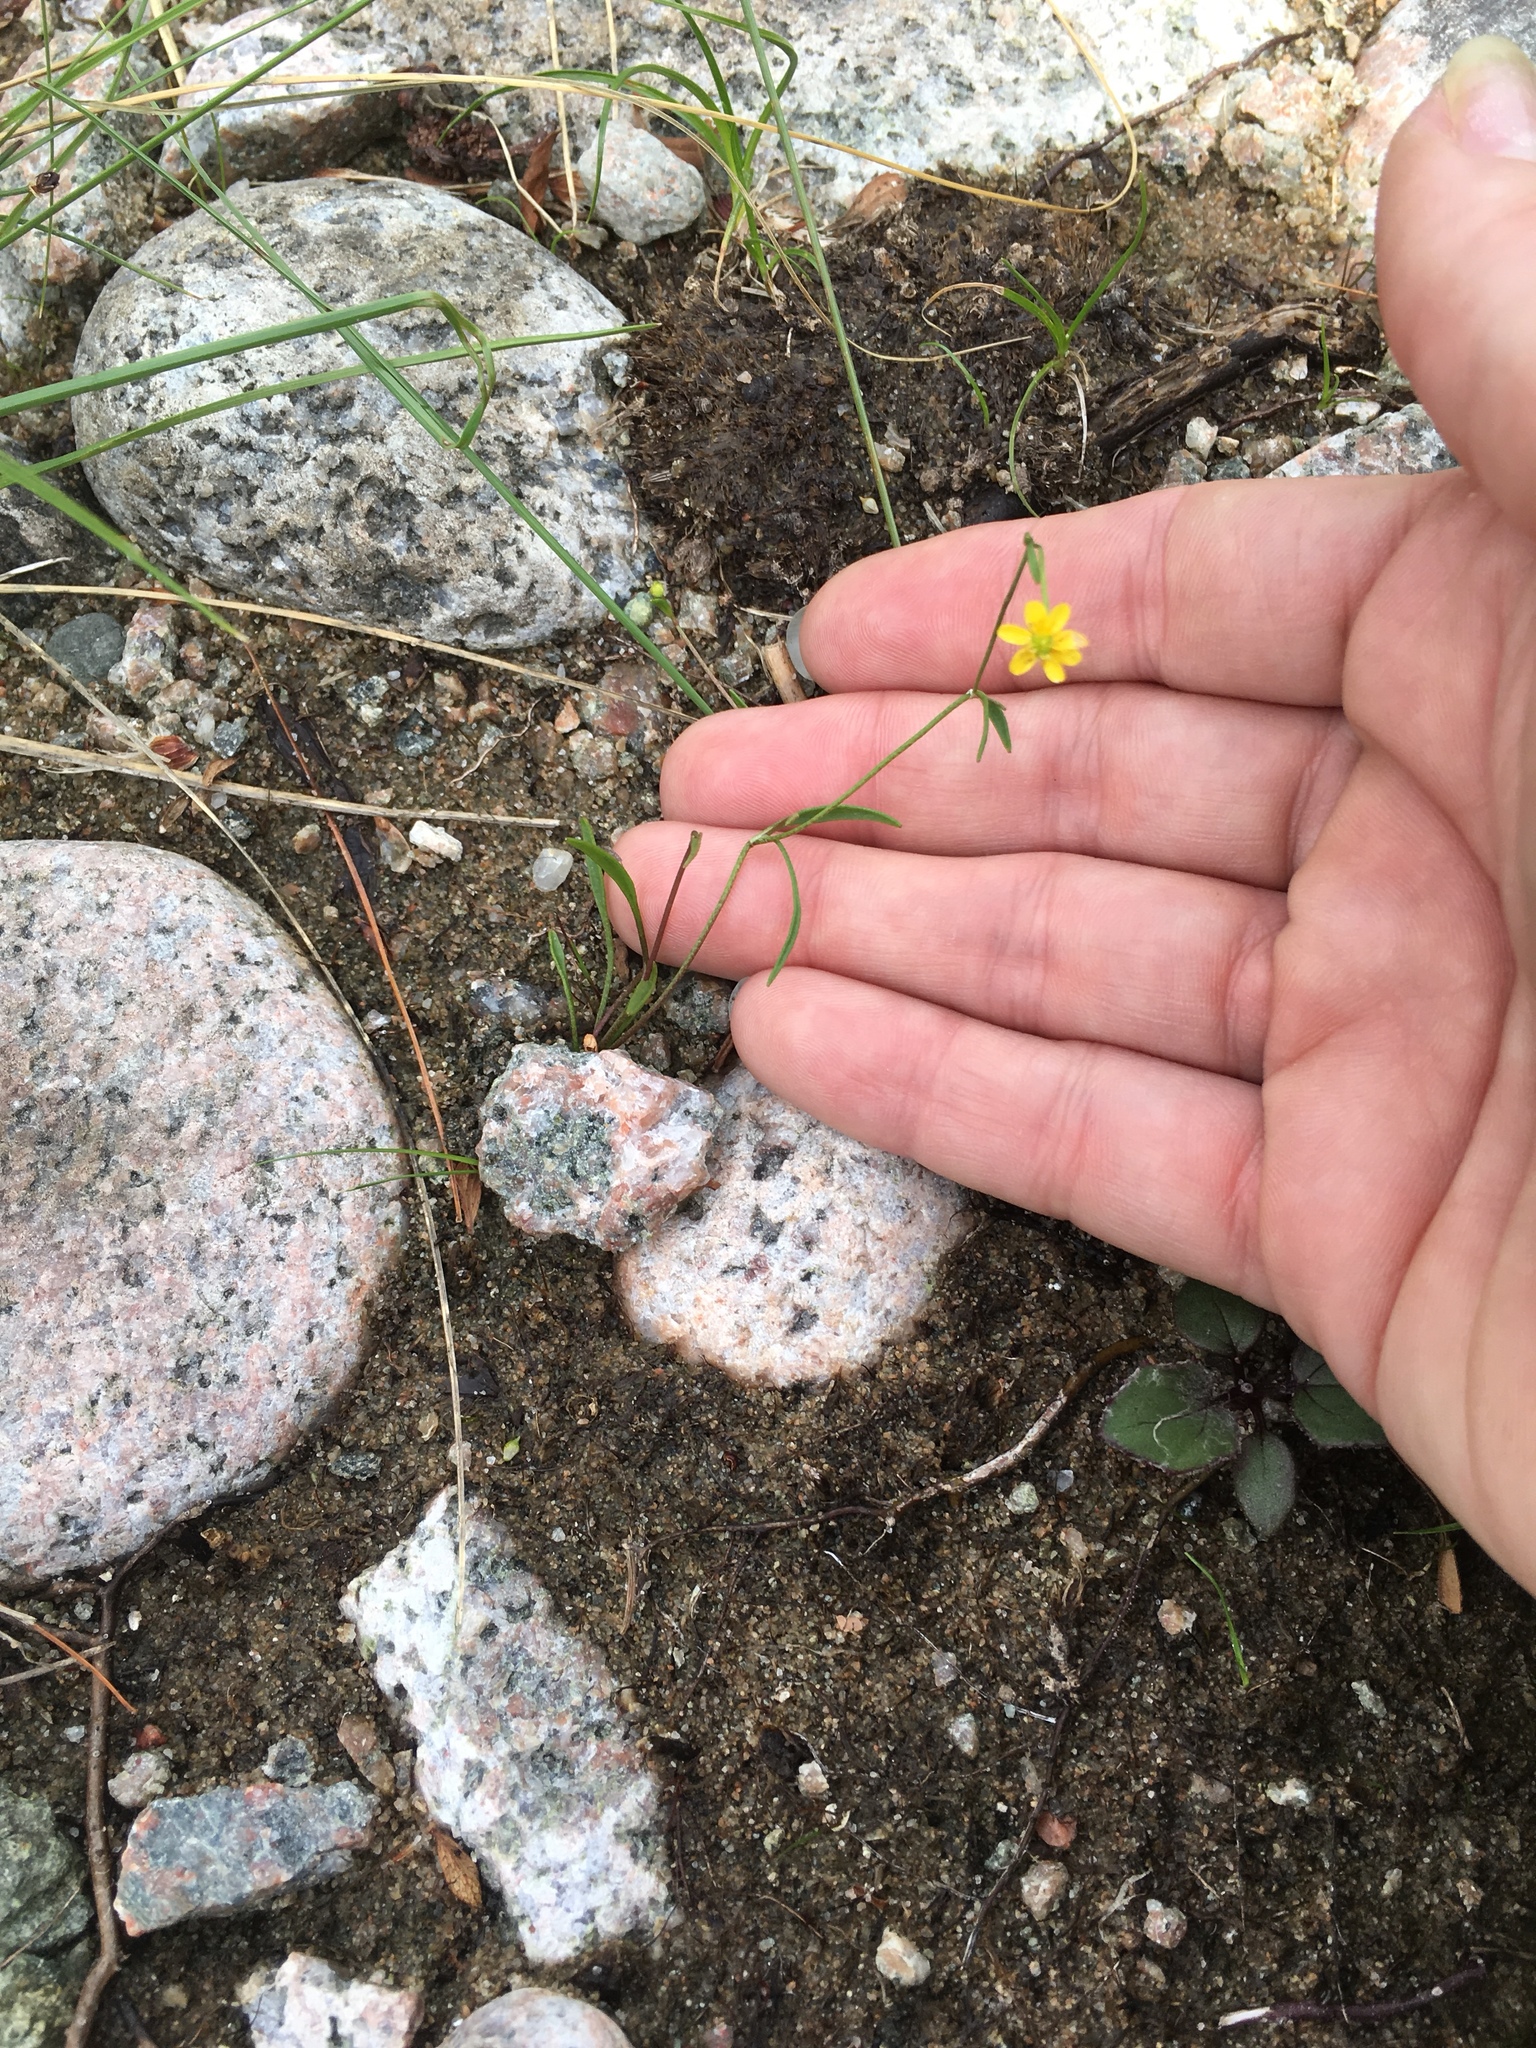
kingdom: Plantae
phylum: Tracheophyta
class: Magnoliopsida
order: Ranunculales
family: Ranunculaceae
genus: Ranunculus
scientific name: Ranunculus reptans
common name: Creeping spearwort
